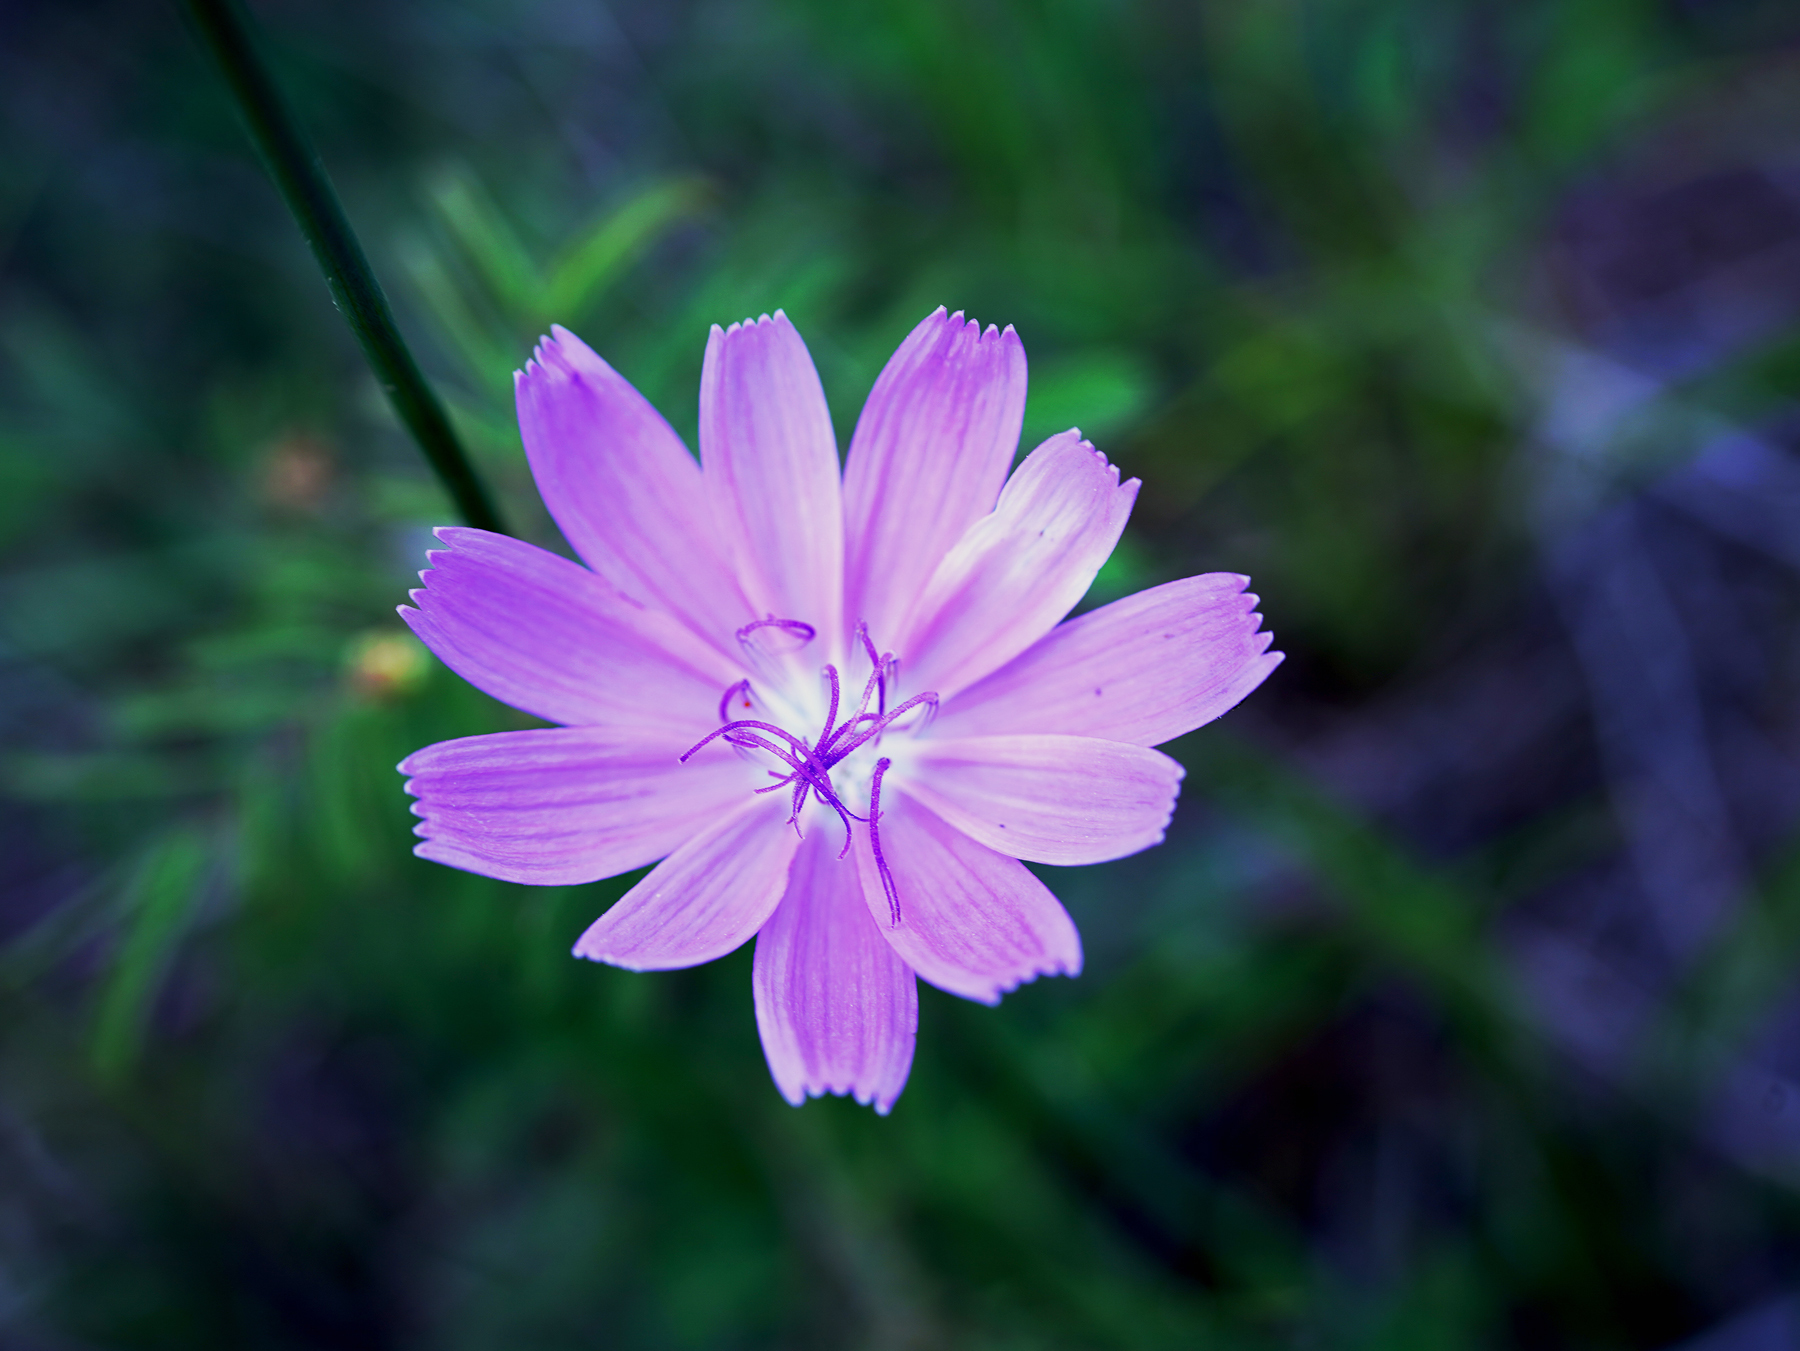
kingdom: Plantae
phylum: Tracheophyta
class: Magnoliopsida
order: Asterales
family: Asteraceae
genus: Lygodesmia
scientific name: Lygodesmia texana
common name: Texas skeleton-plant
